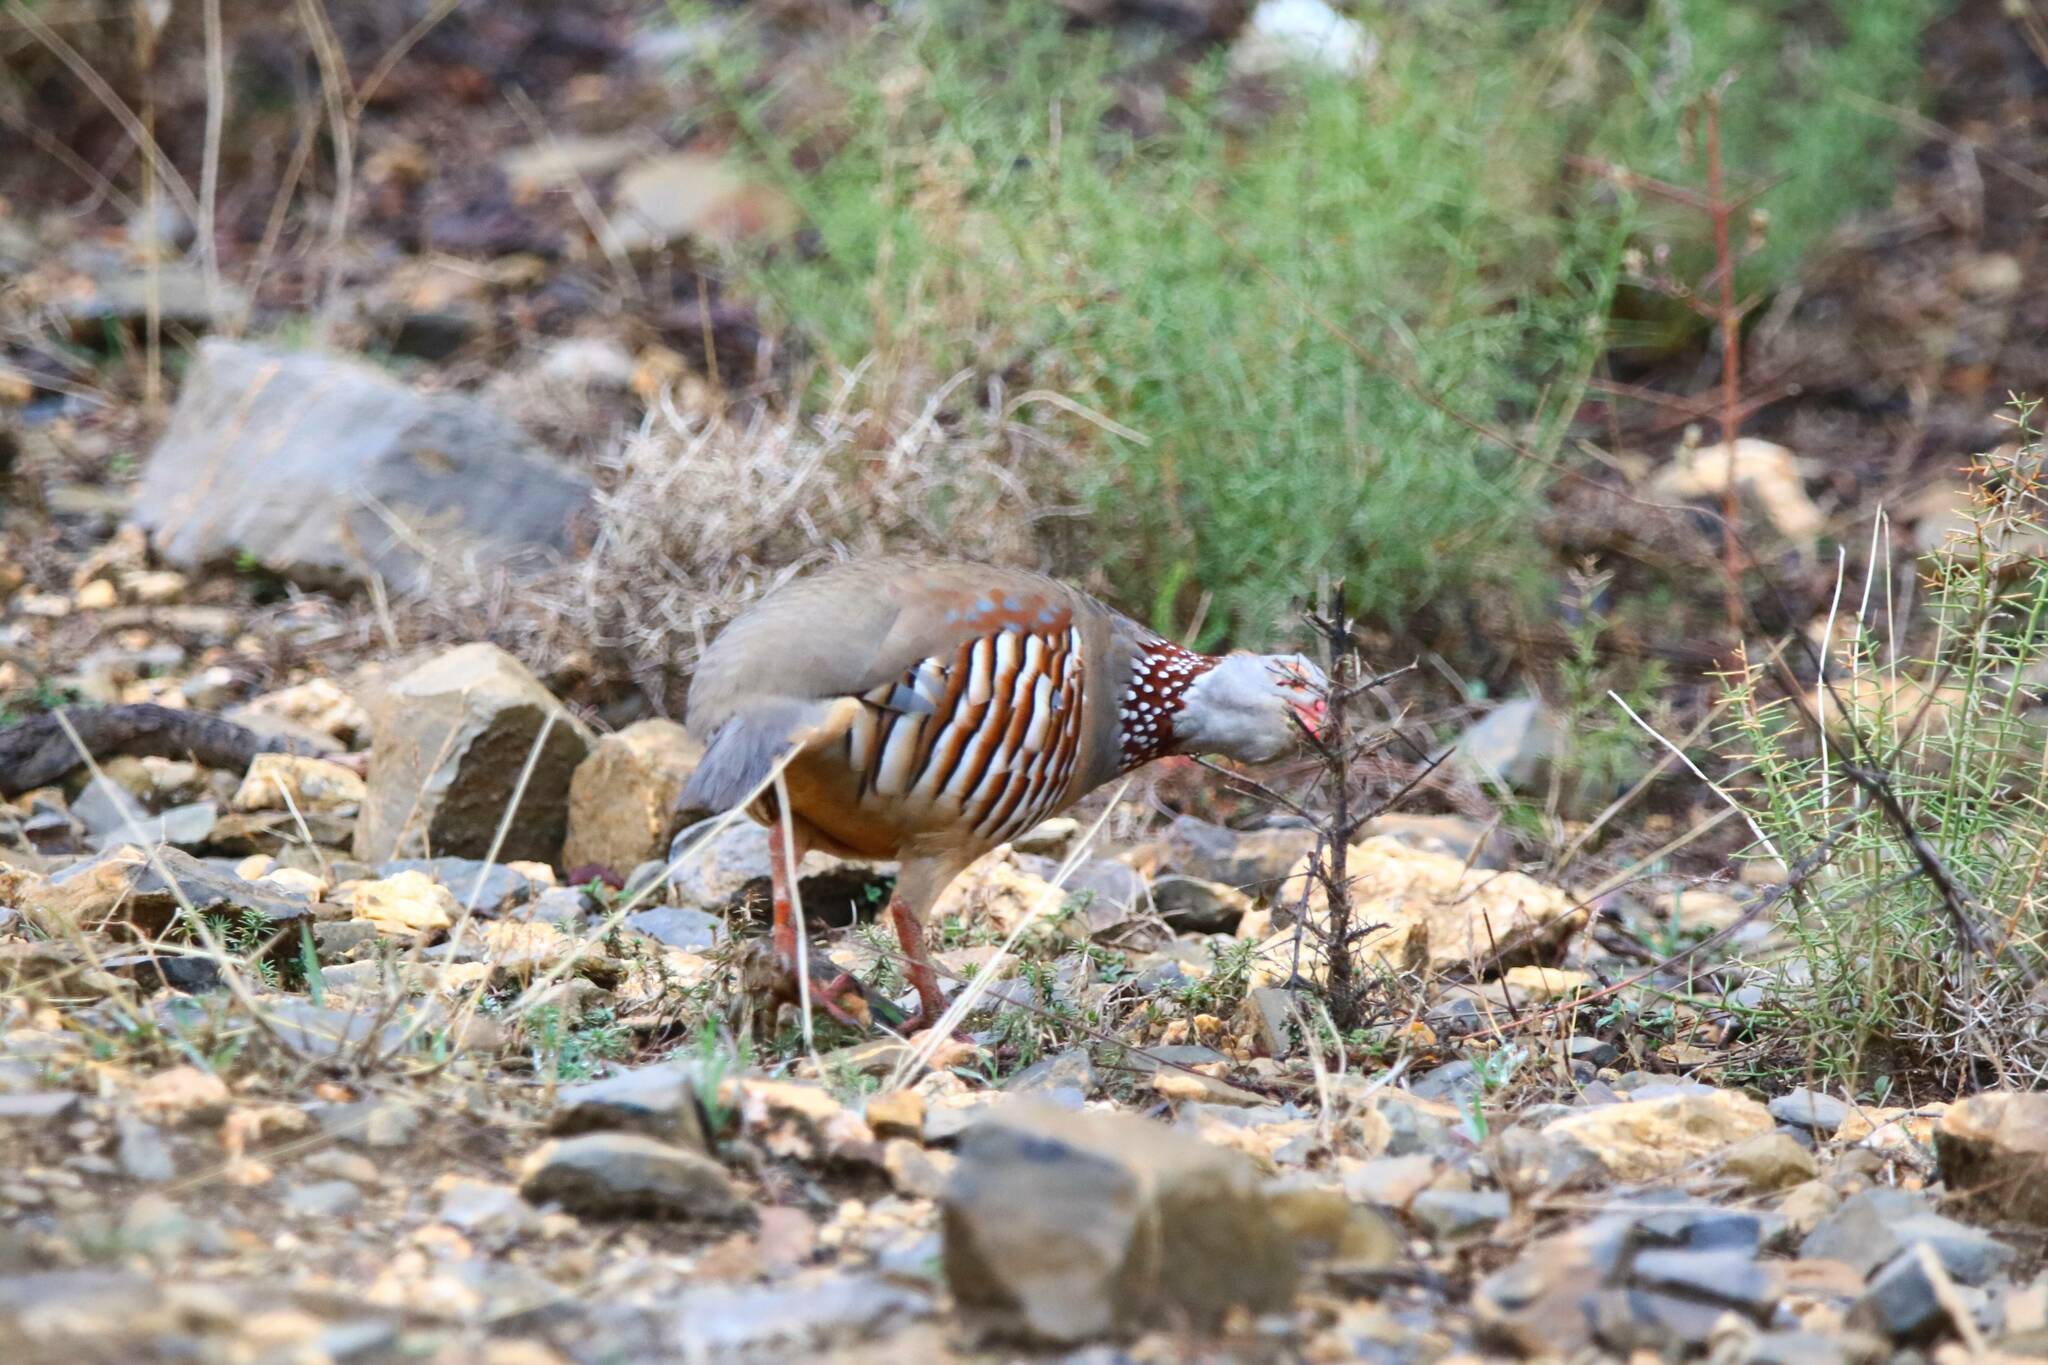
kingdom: Animalia
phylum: Chordata
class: Aves
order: Galliformes
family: Phasianidae
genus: Alectoris
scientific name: Alectoris barbara
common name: Barbary partridge
